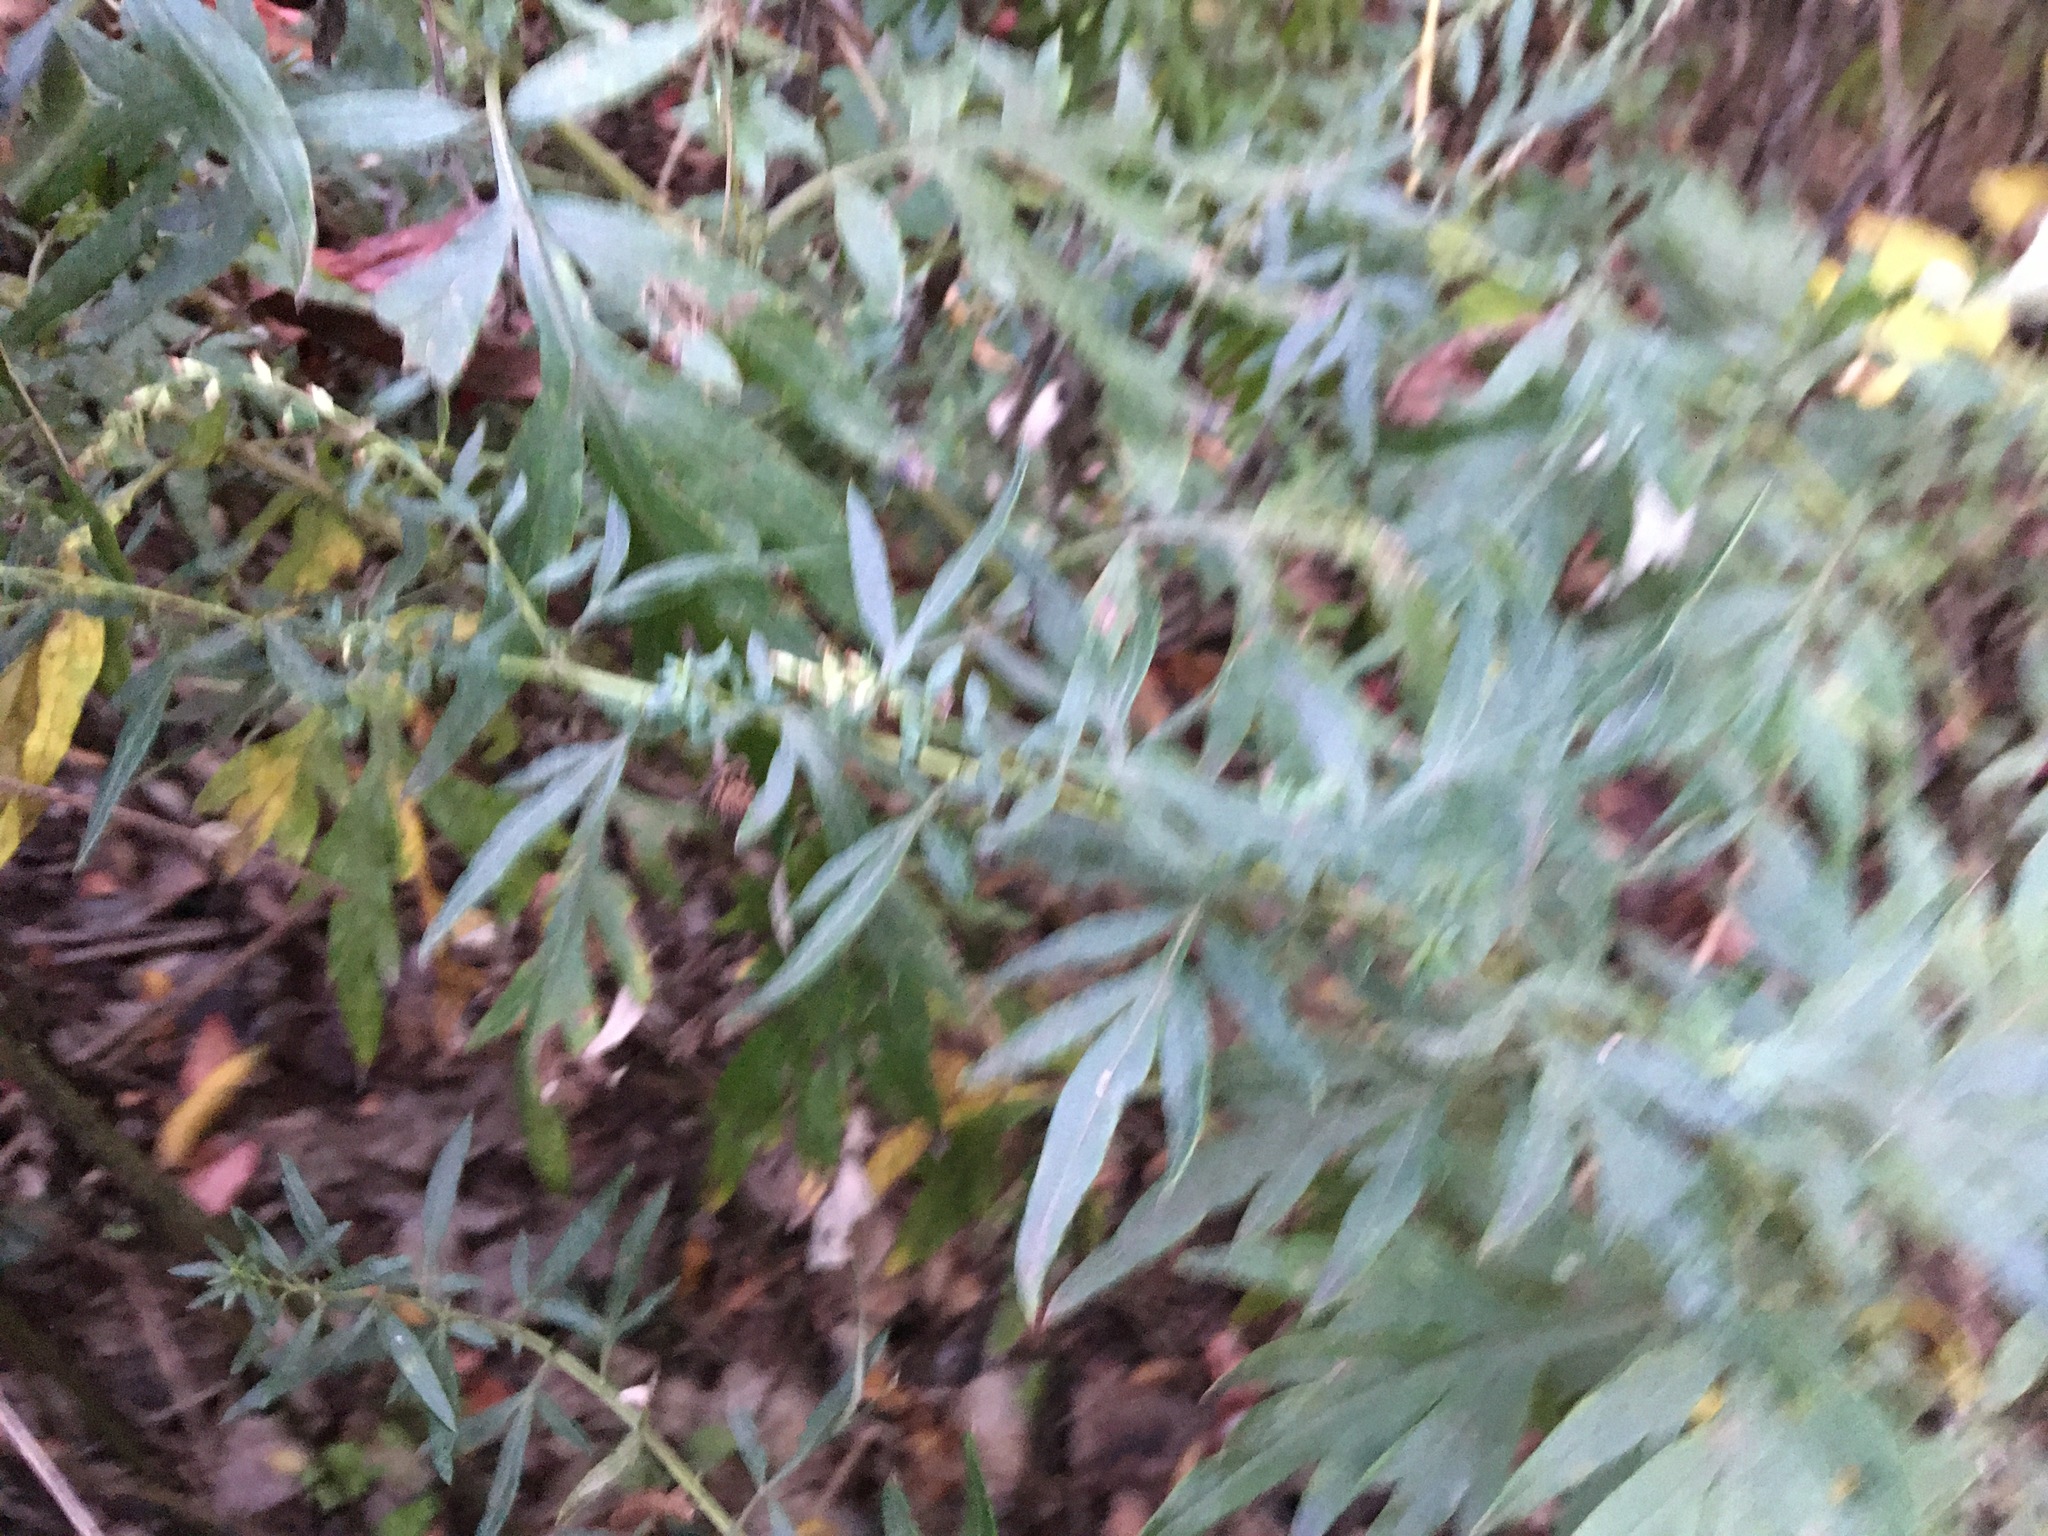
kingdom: Plantae
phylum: Tracheophyta
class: Magnoliopsida
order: Asterales
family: Asteraceae
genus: Artemisia
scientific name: Artemisia vulgaris
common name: Mugwort
